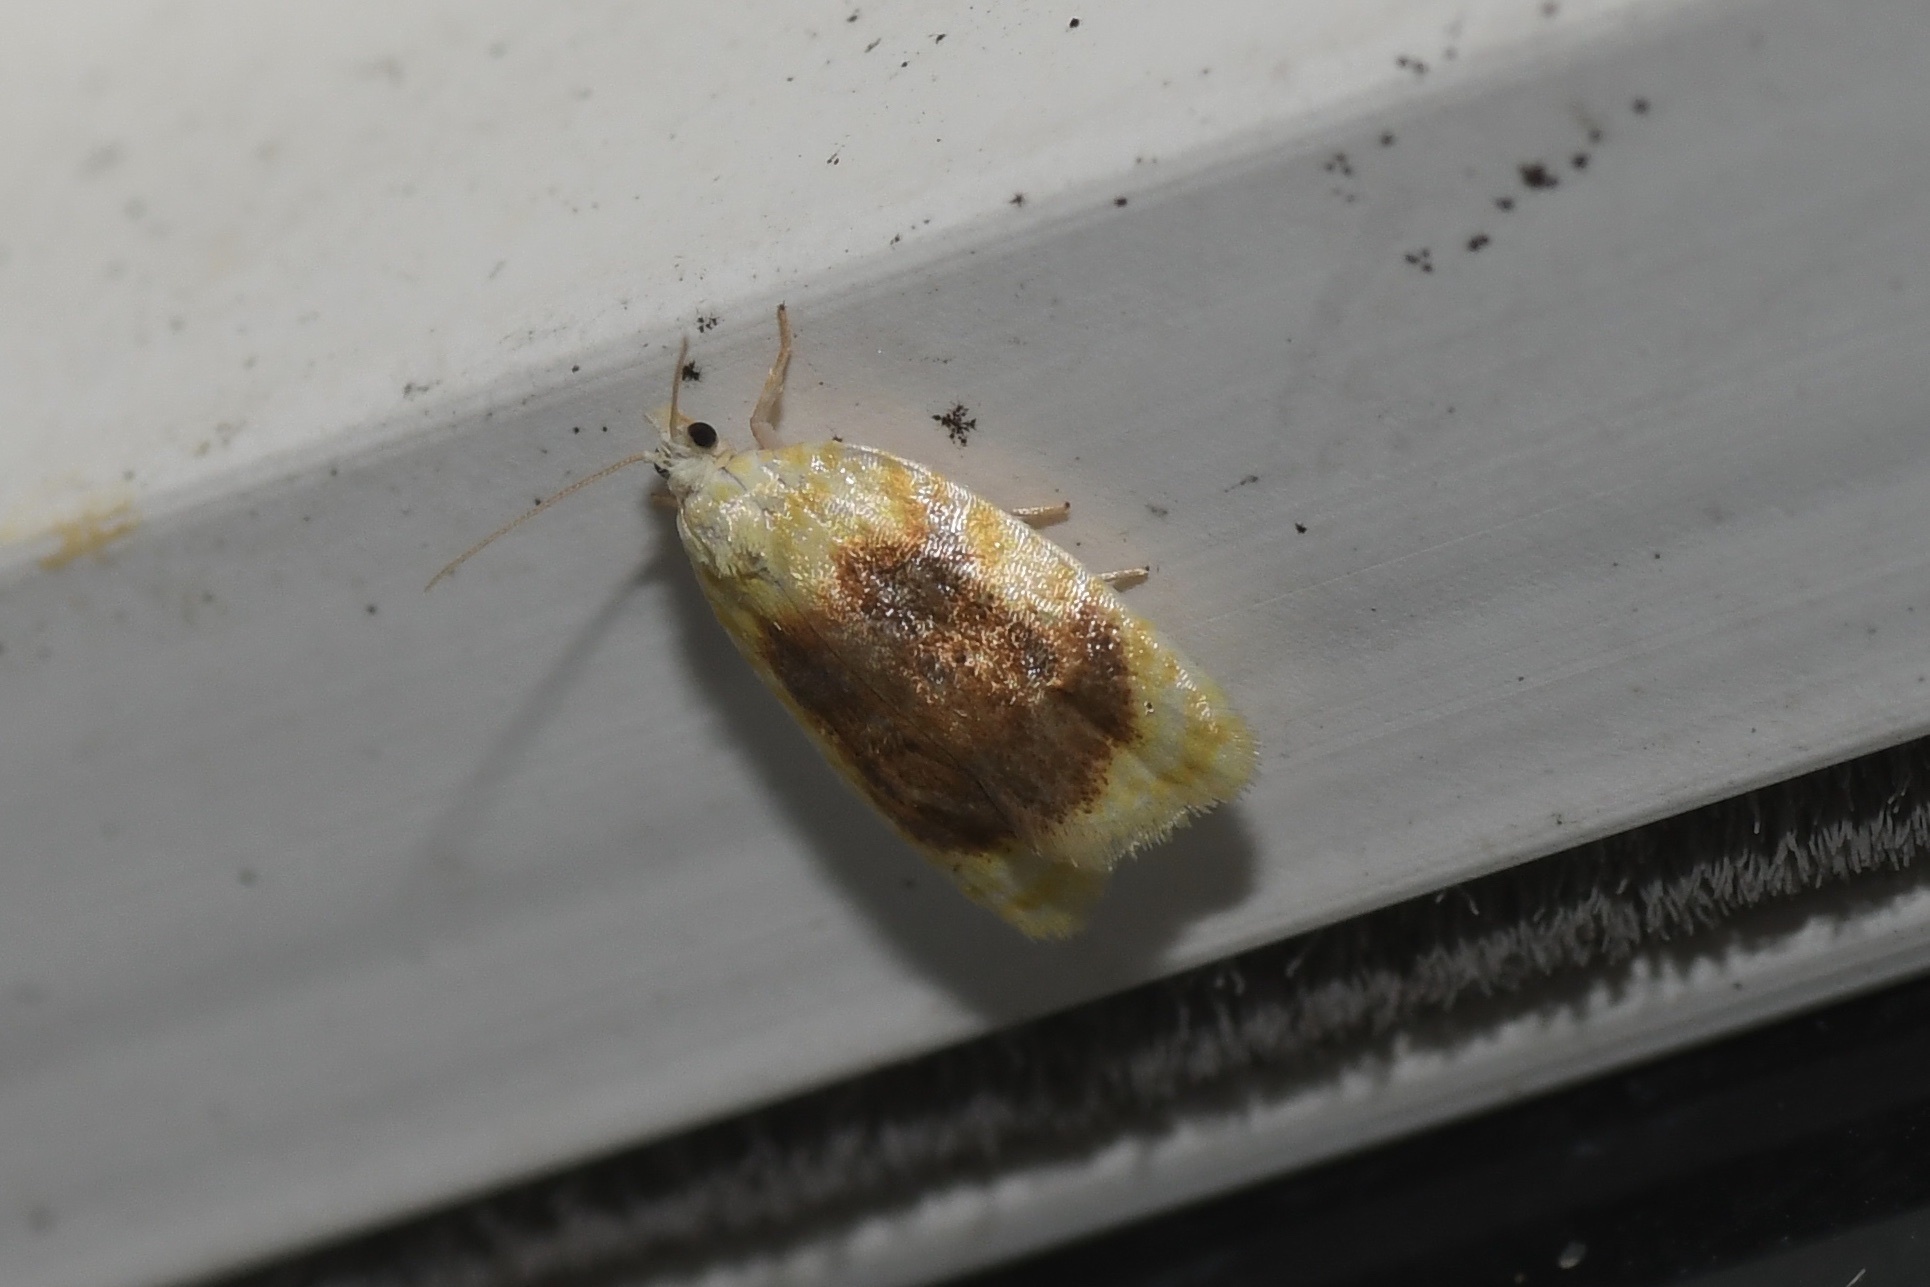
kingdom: Animalia
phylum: Arthropoda
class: Insecta
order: Lepidoptera
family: Tortricidae
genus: Acleris
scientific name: Acleris semipurpurana
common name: Oak leaftier moth
